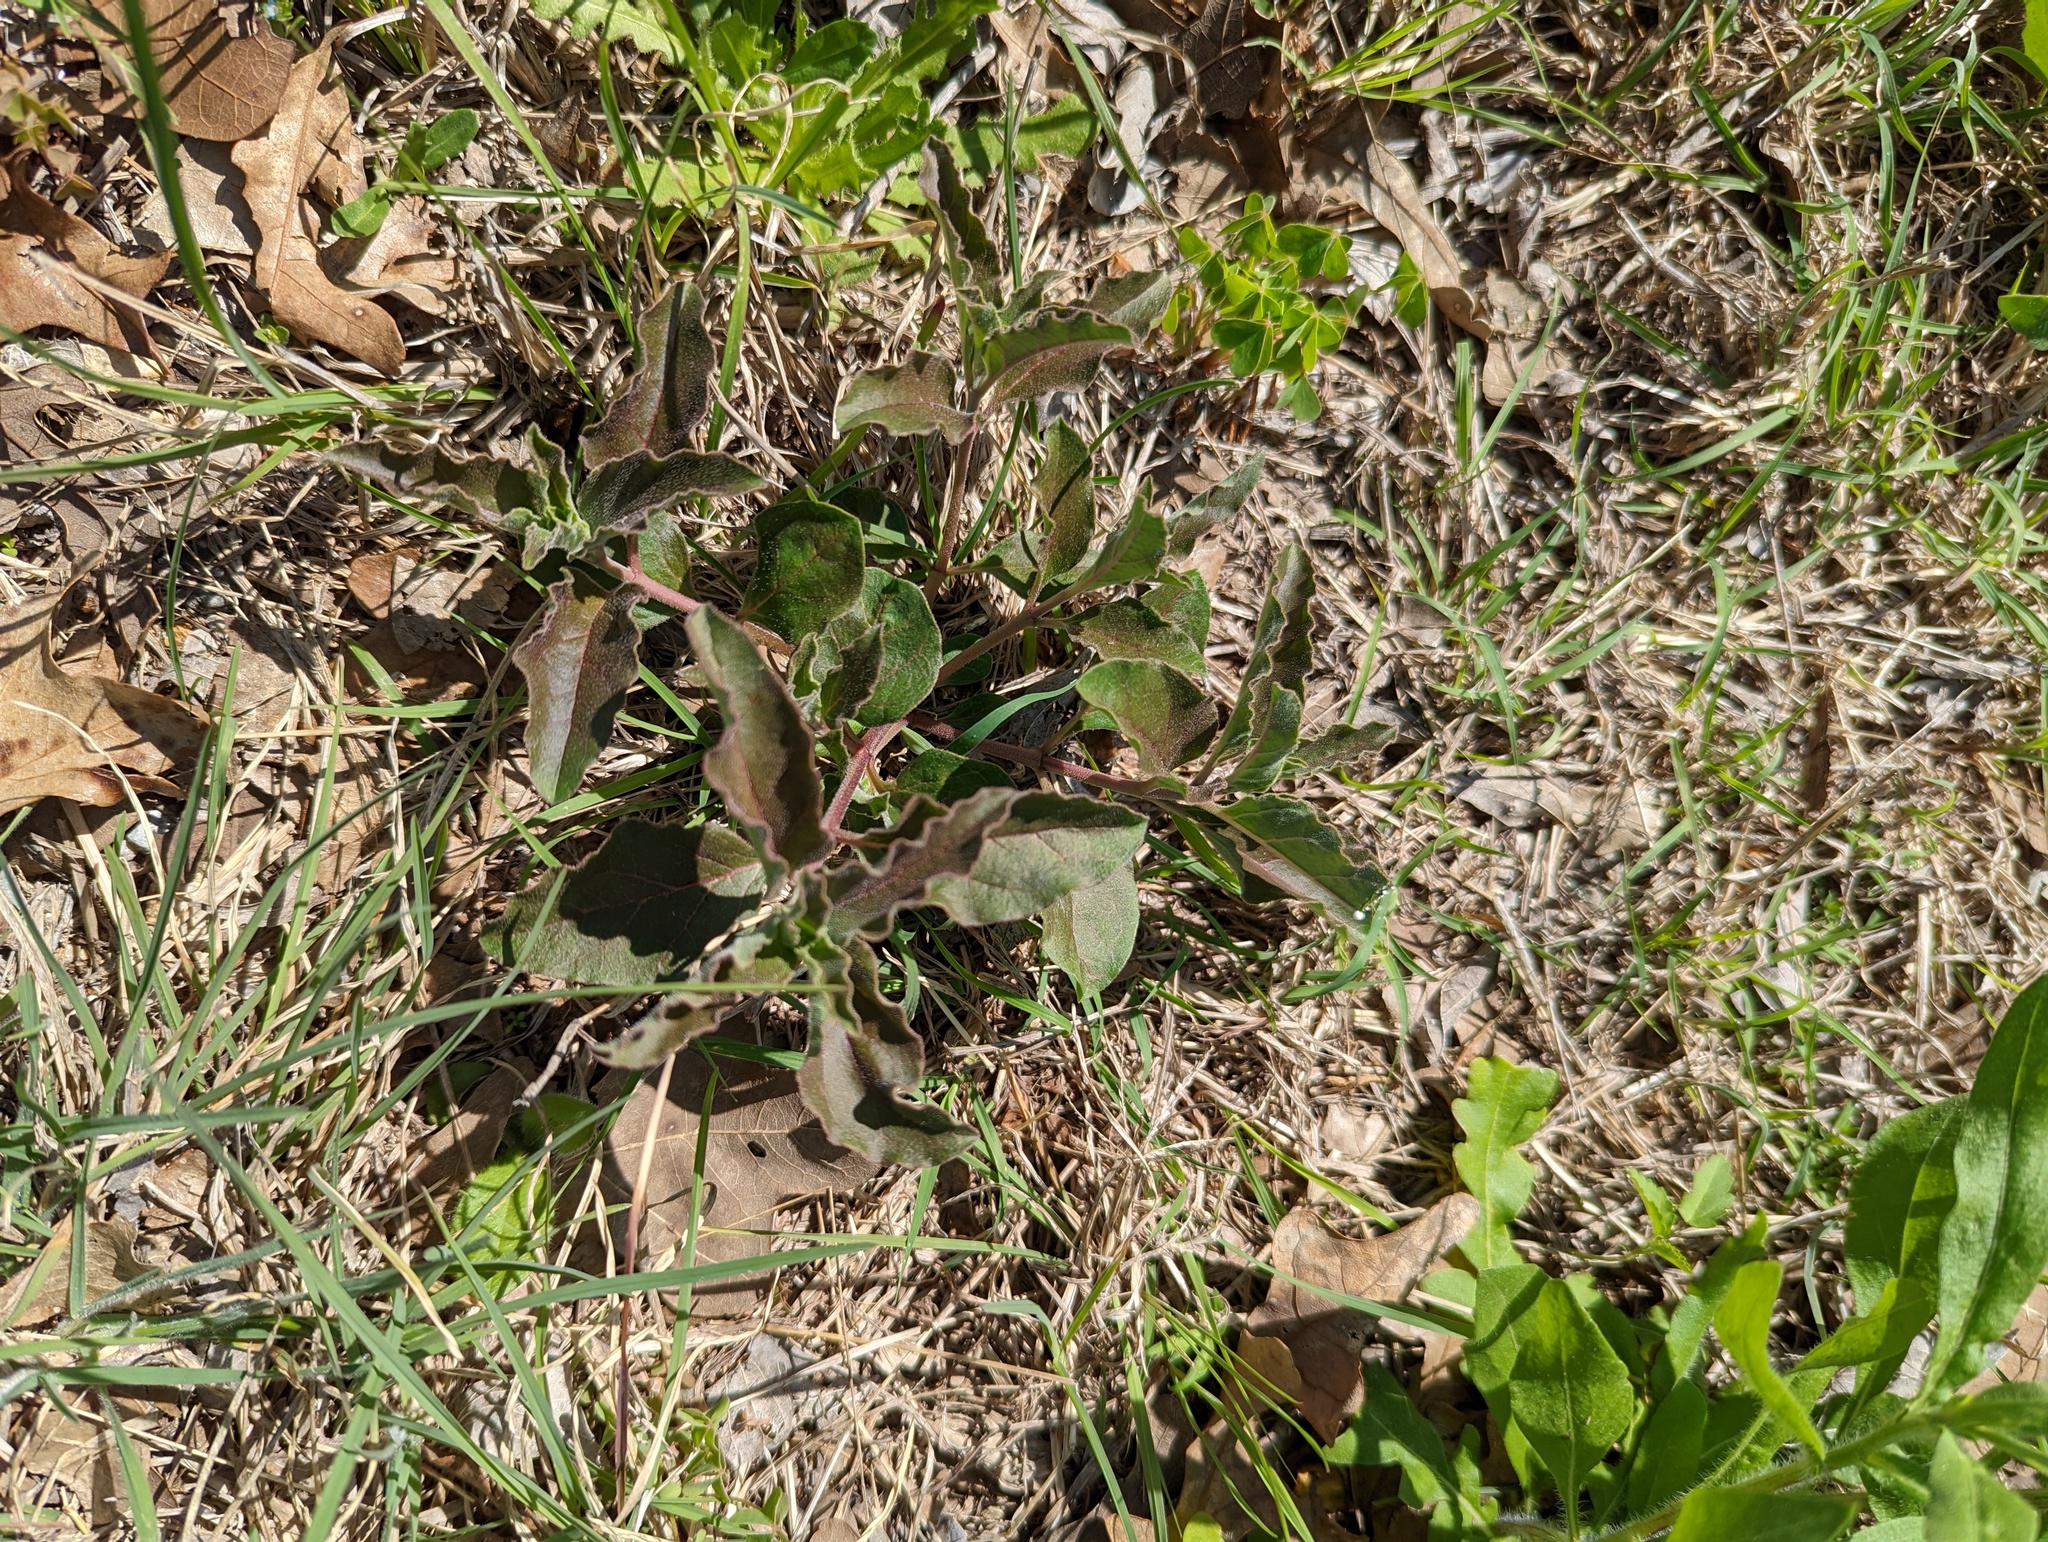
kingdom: Plantae
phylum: Tracheophyta
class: Magnoliopsida
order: Gentianales
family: Apocynaceae
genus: Asclepias
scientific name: Asclepias oenotheroides
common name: Zizotes milkweed
